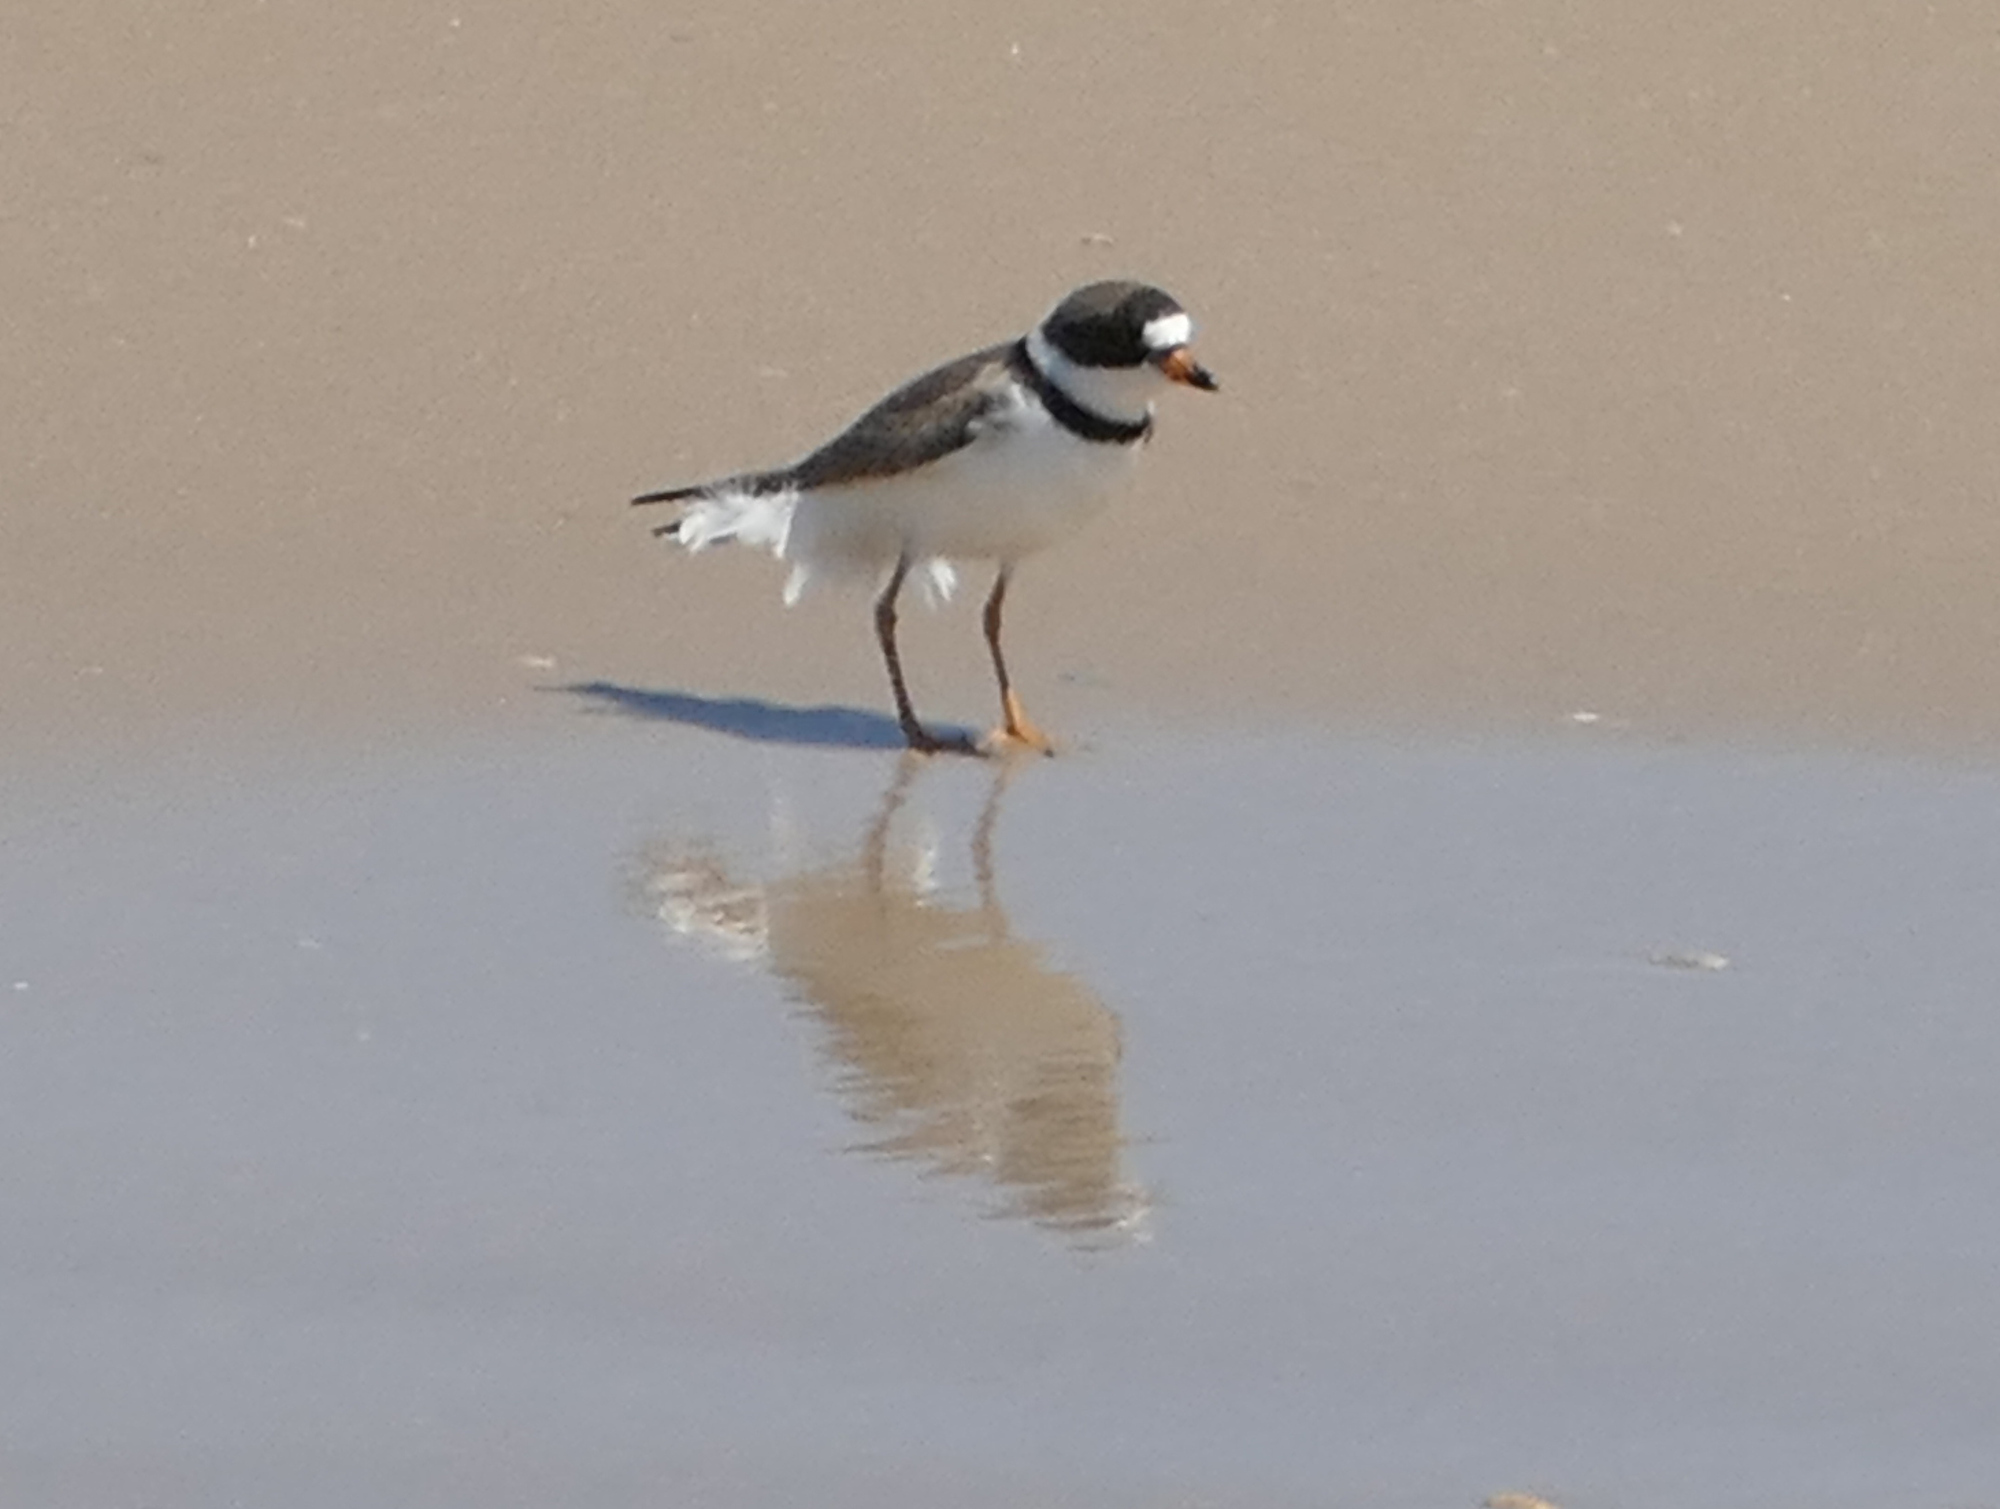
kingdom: Animalia
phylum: Chordata
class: Aves
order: Charadriiformes
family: Charadriidae
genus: Charadrius
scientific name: Charadrius semipalmatus
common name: Semipalmated plover
